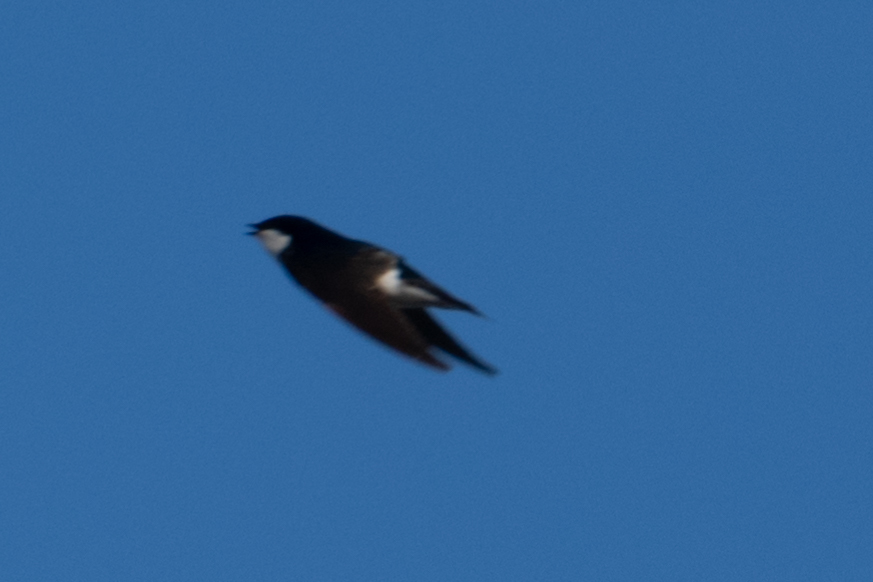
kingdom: Animalia
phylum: Chordata
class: Aves
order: Passeriformes
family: Hirundinidae
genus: Tachycineta
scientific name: Tachycineta bicolor
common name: Tree swallow
